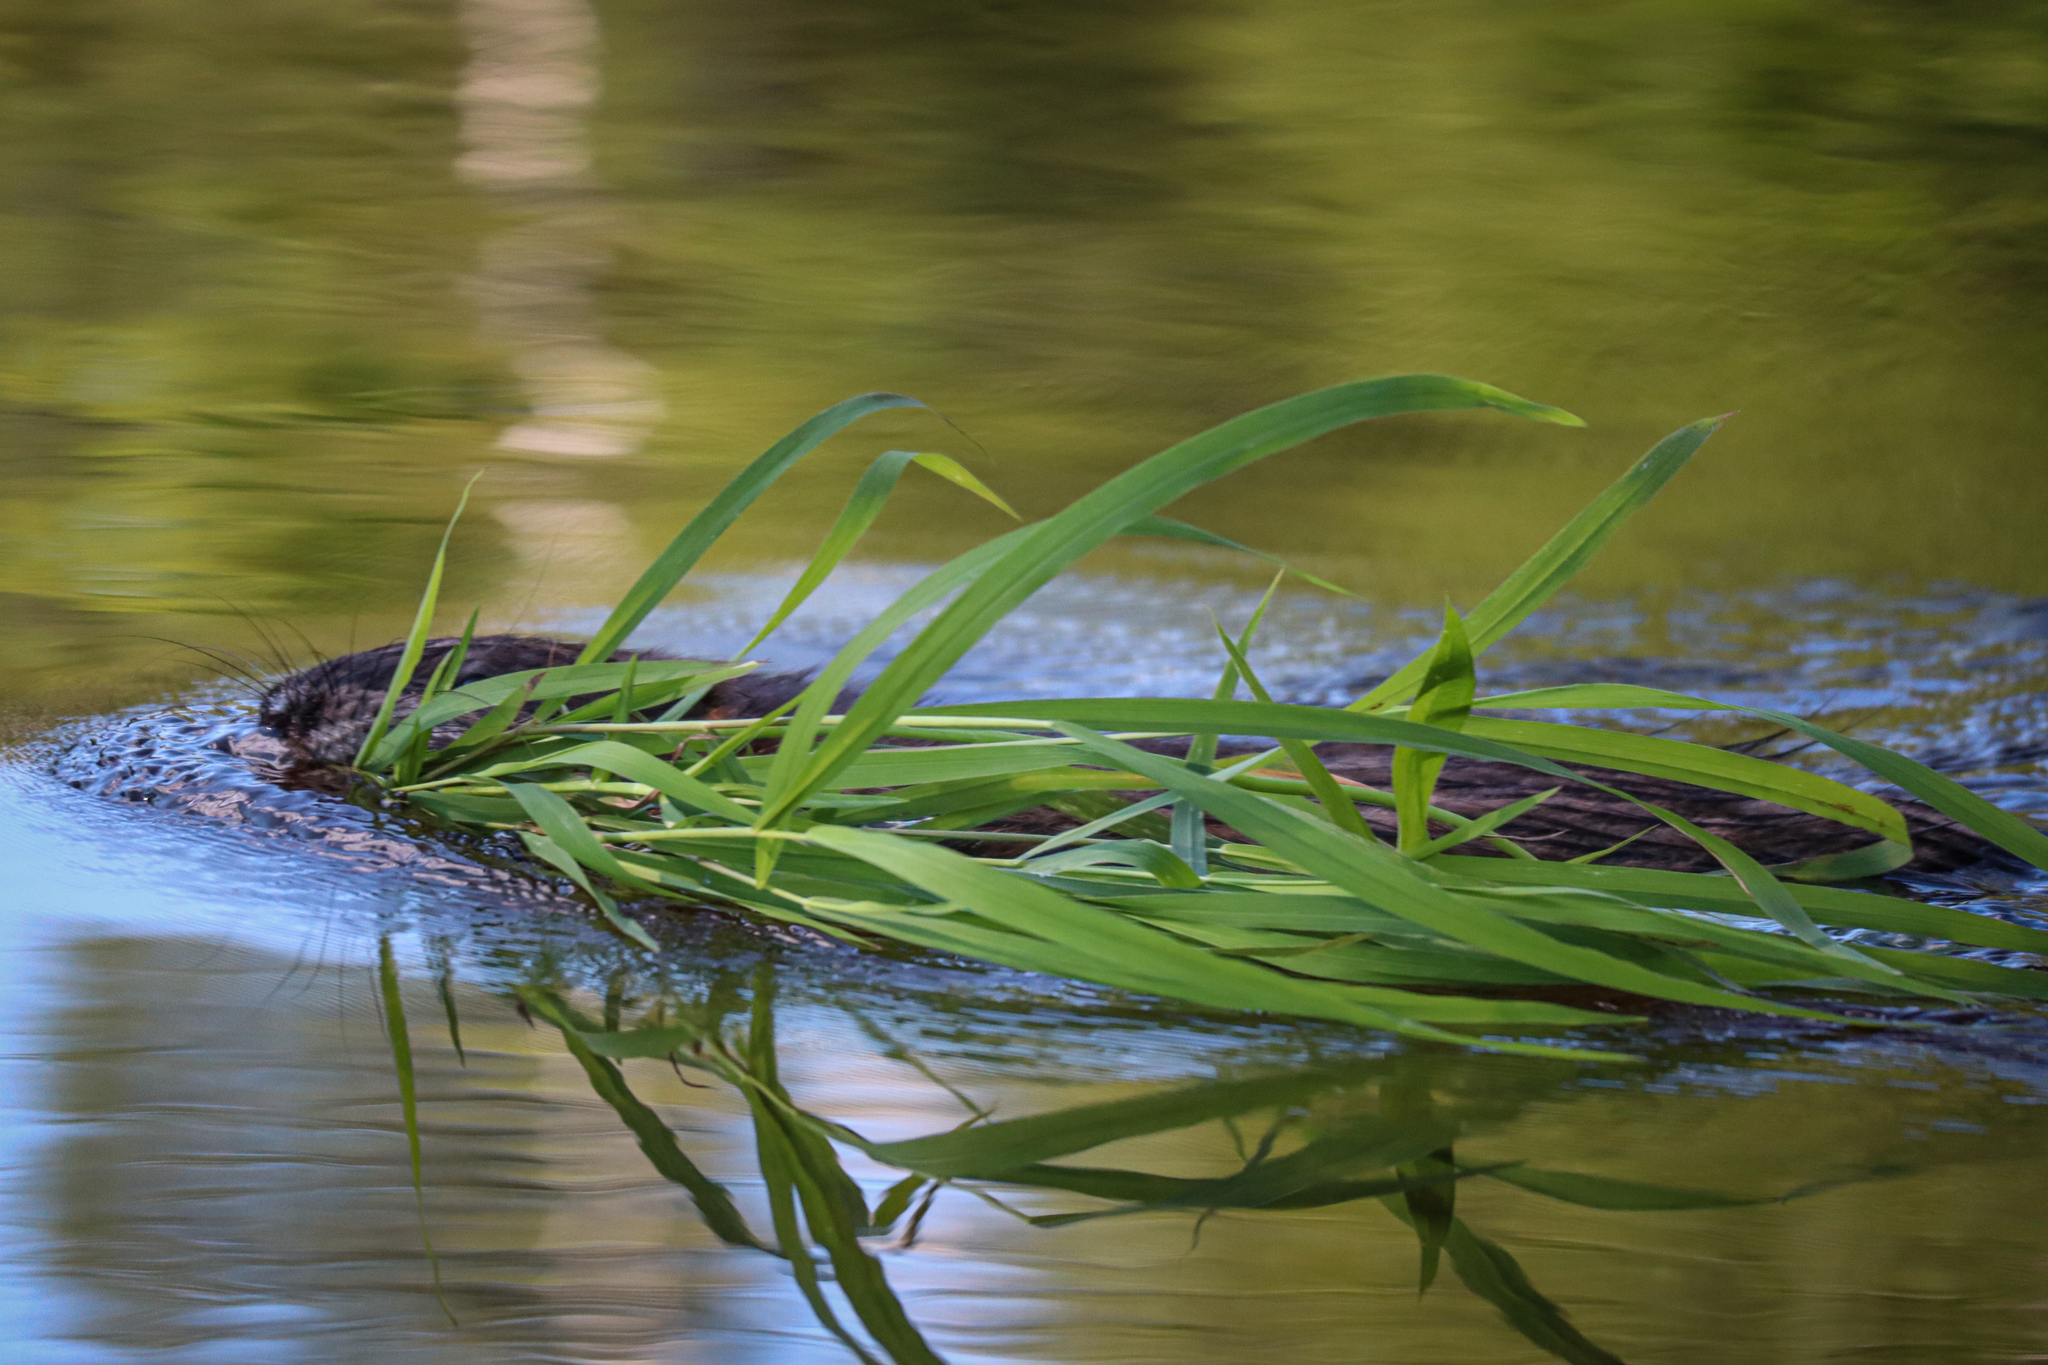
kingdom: Animalia
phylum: Chordata
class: Mammalia
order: Rodentia
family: Cricetidae
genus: Ondatra
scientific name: Ondatra zibethicus
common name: Muskrat
